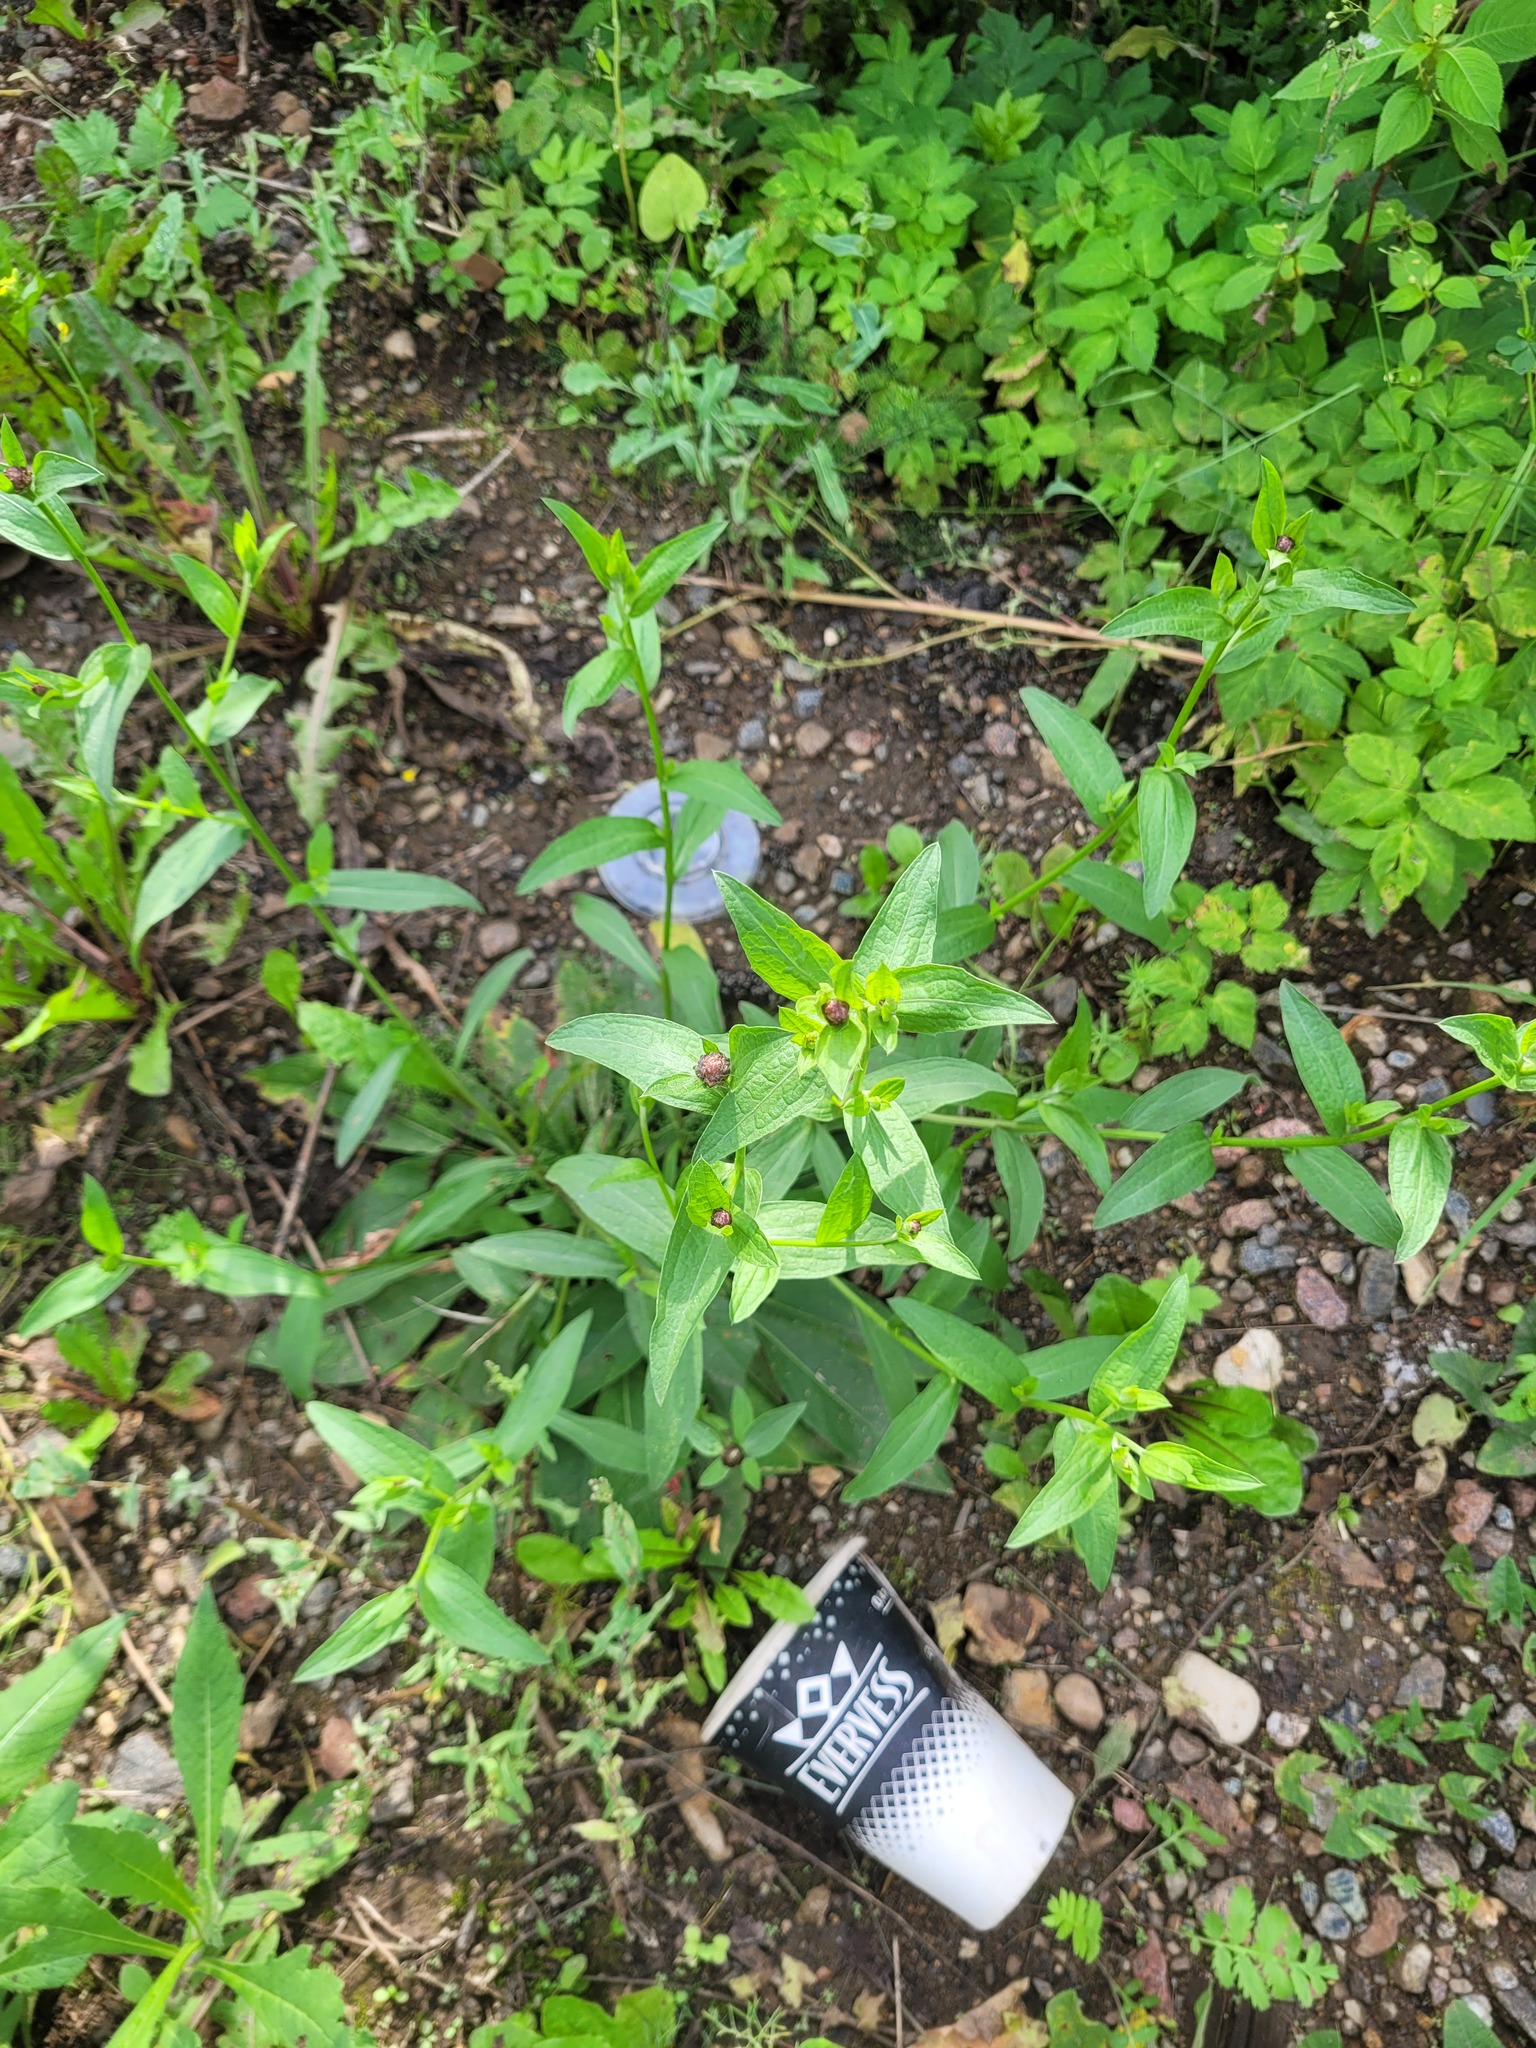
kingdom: Plantae
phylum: Tracheophyta
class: Magnoliopsida
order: Asterales
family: Asteraceae
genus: Centaurea
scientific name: Centaurea jacea
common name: Brown knapweed
